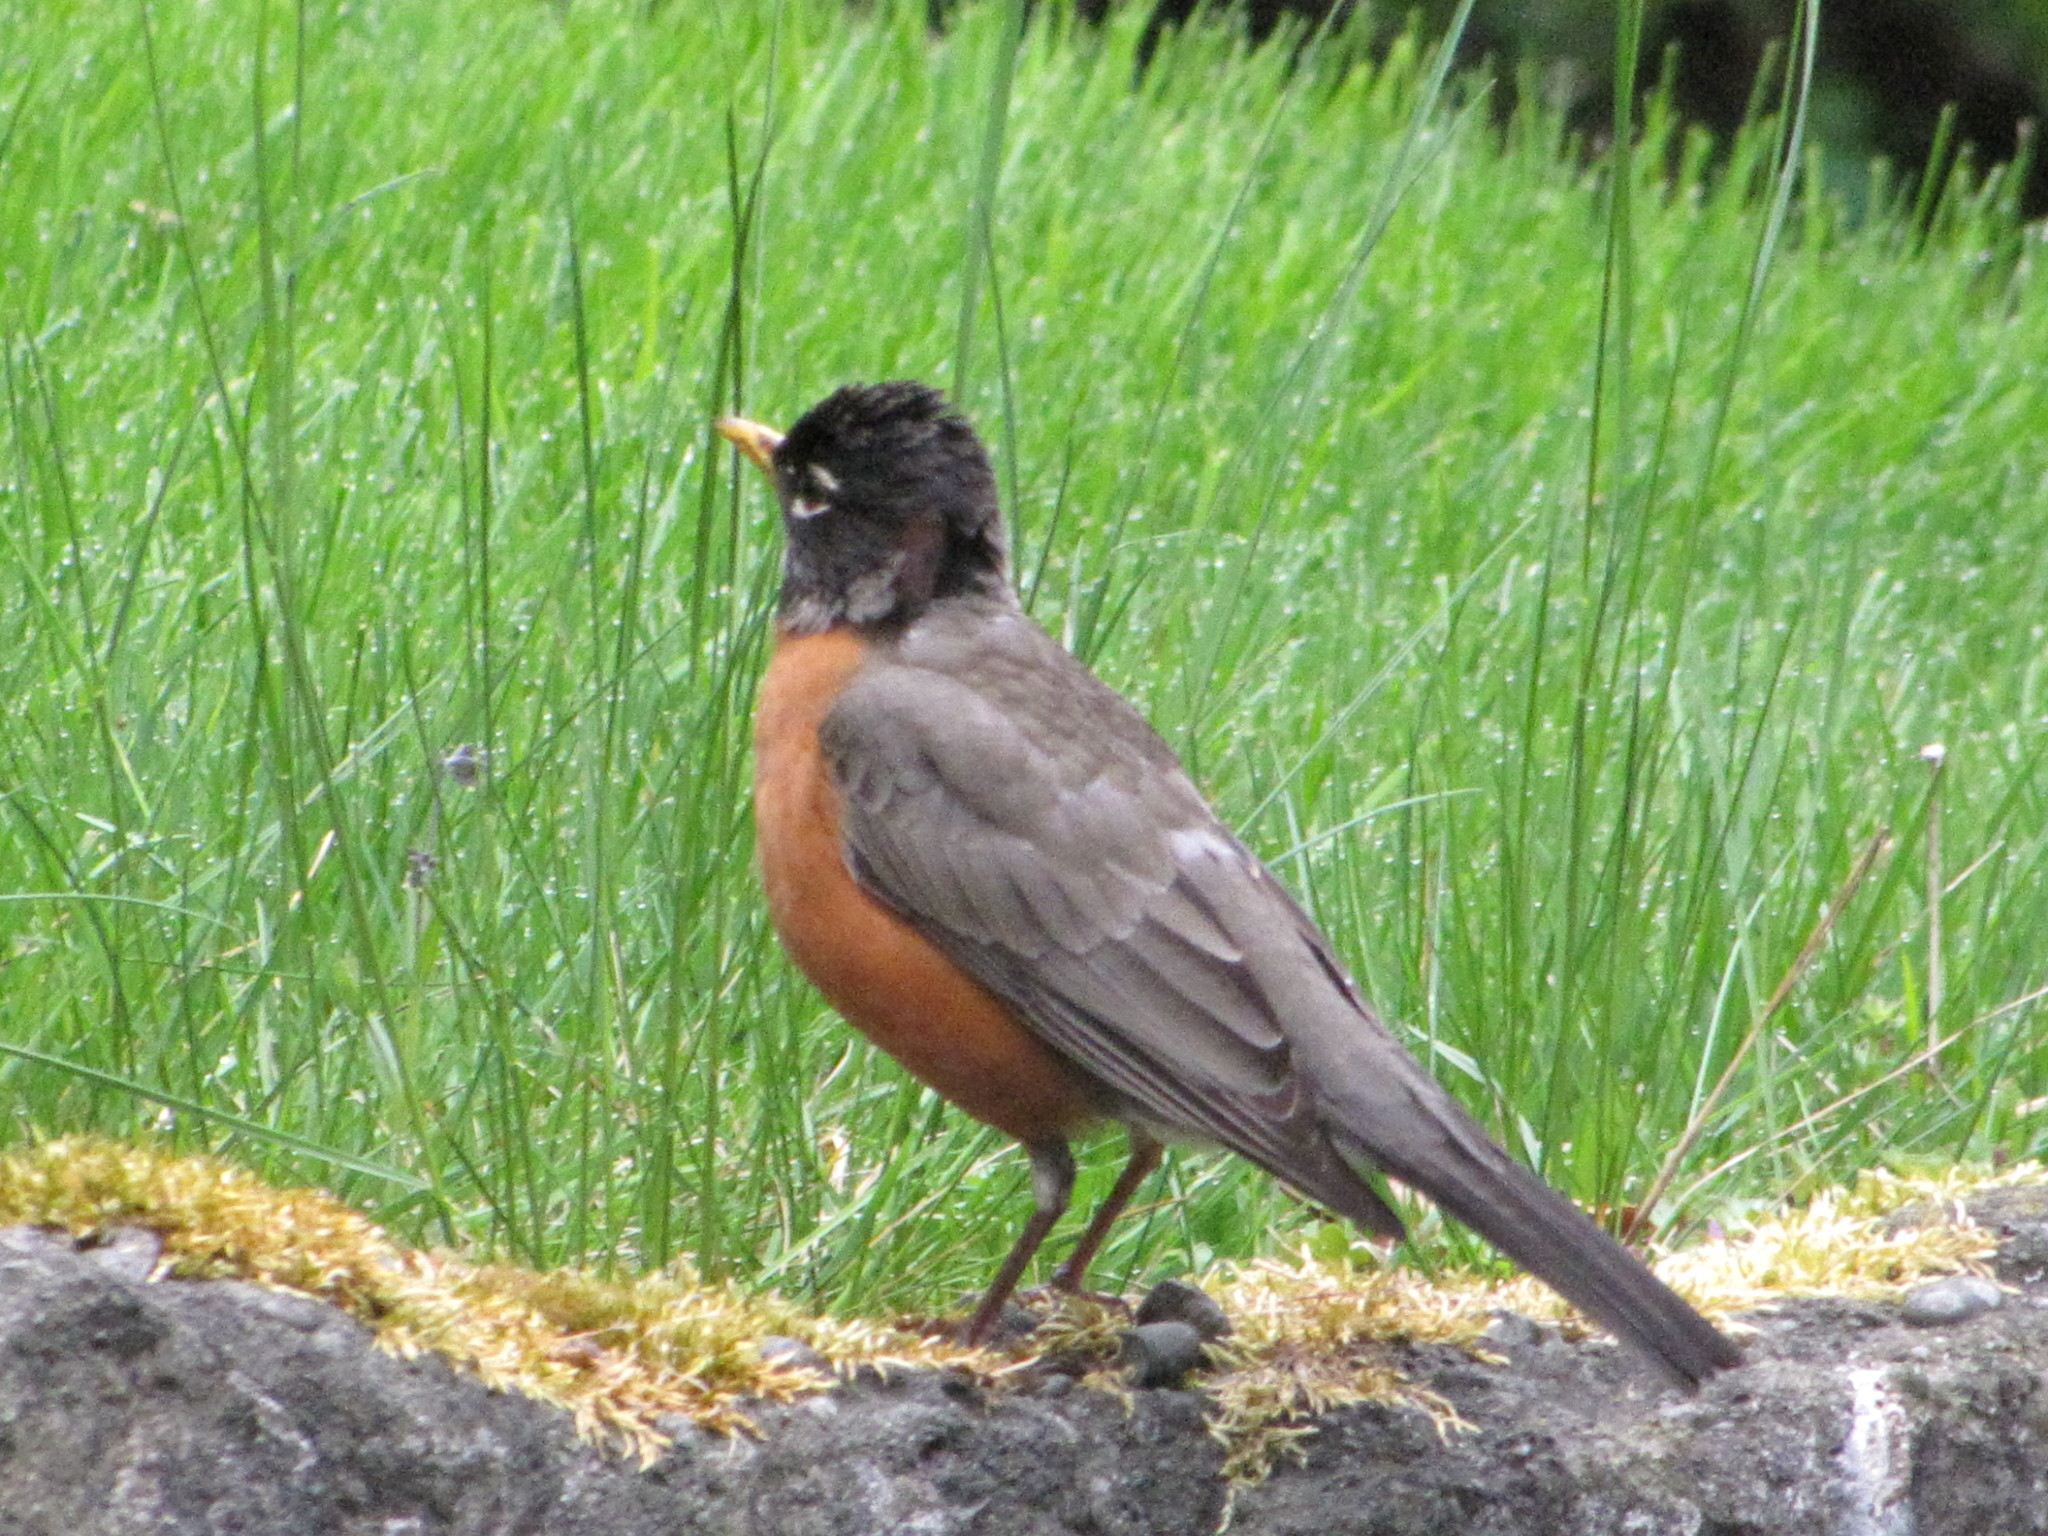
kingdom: Animalia
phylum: Chordata
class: Aves
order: Passeriformes
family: Turdidae
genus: Turdus
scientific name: Turdus migratorius
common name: American robin
